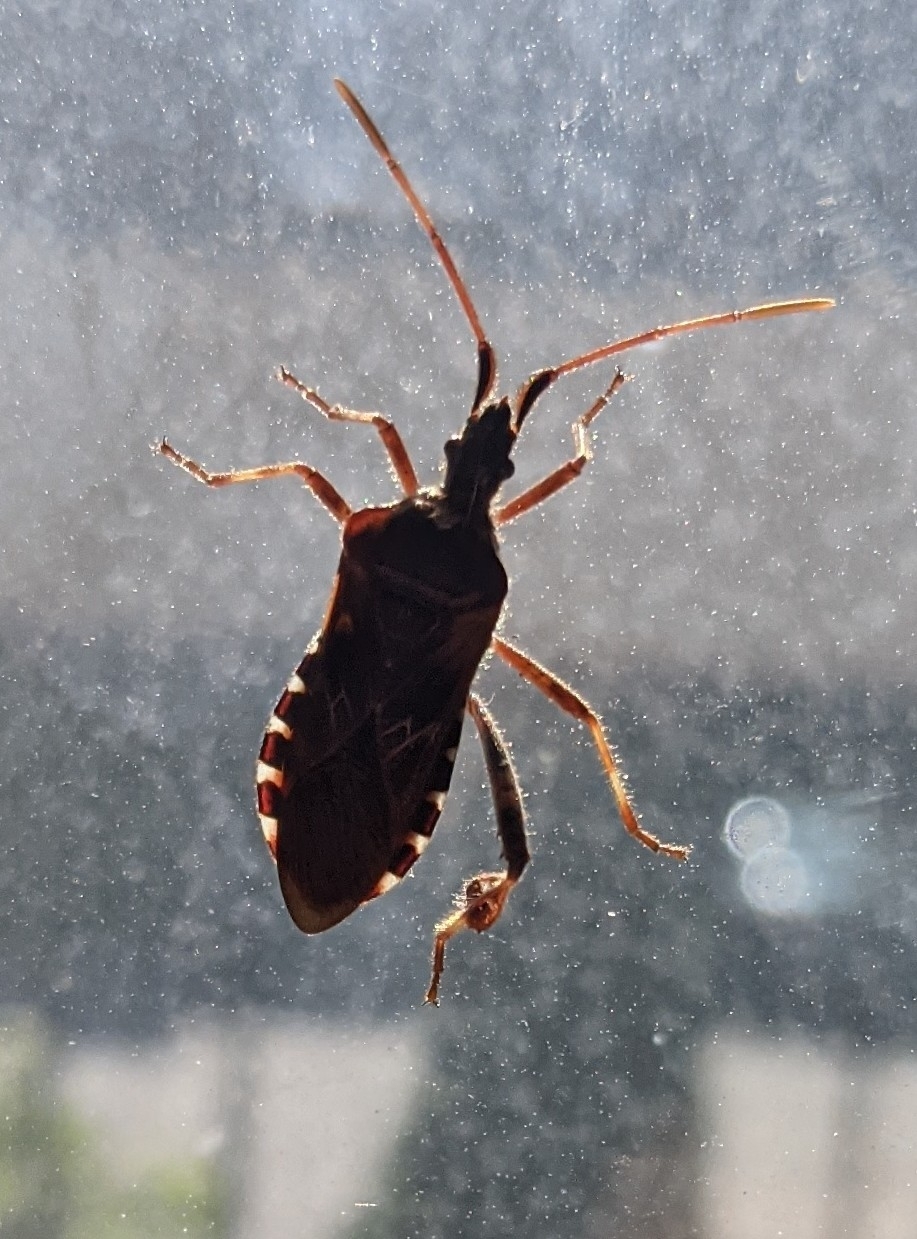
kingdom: Animalia
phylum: Arthropoda
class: Insecta
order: Hemiptera
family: Coreidae
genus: Leptoglossus
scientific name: Leptoglossus occidentalis
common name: Western conifer-seed bug
